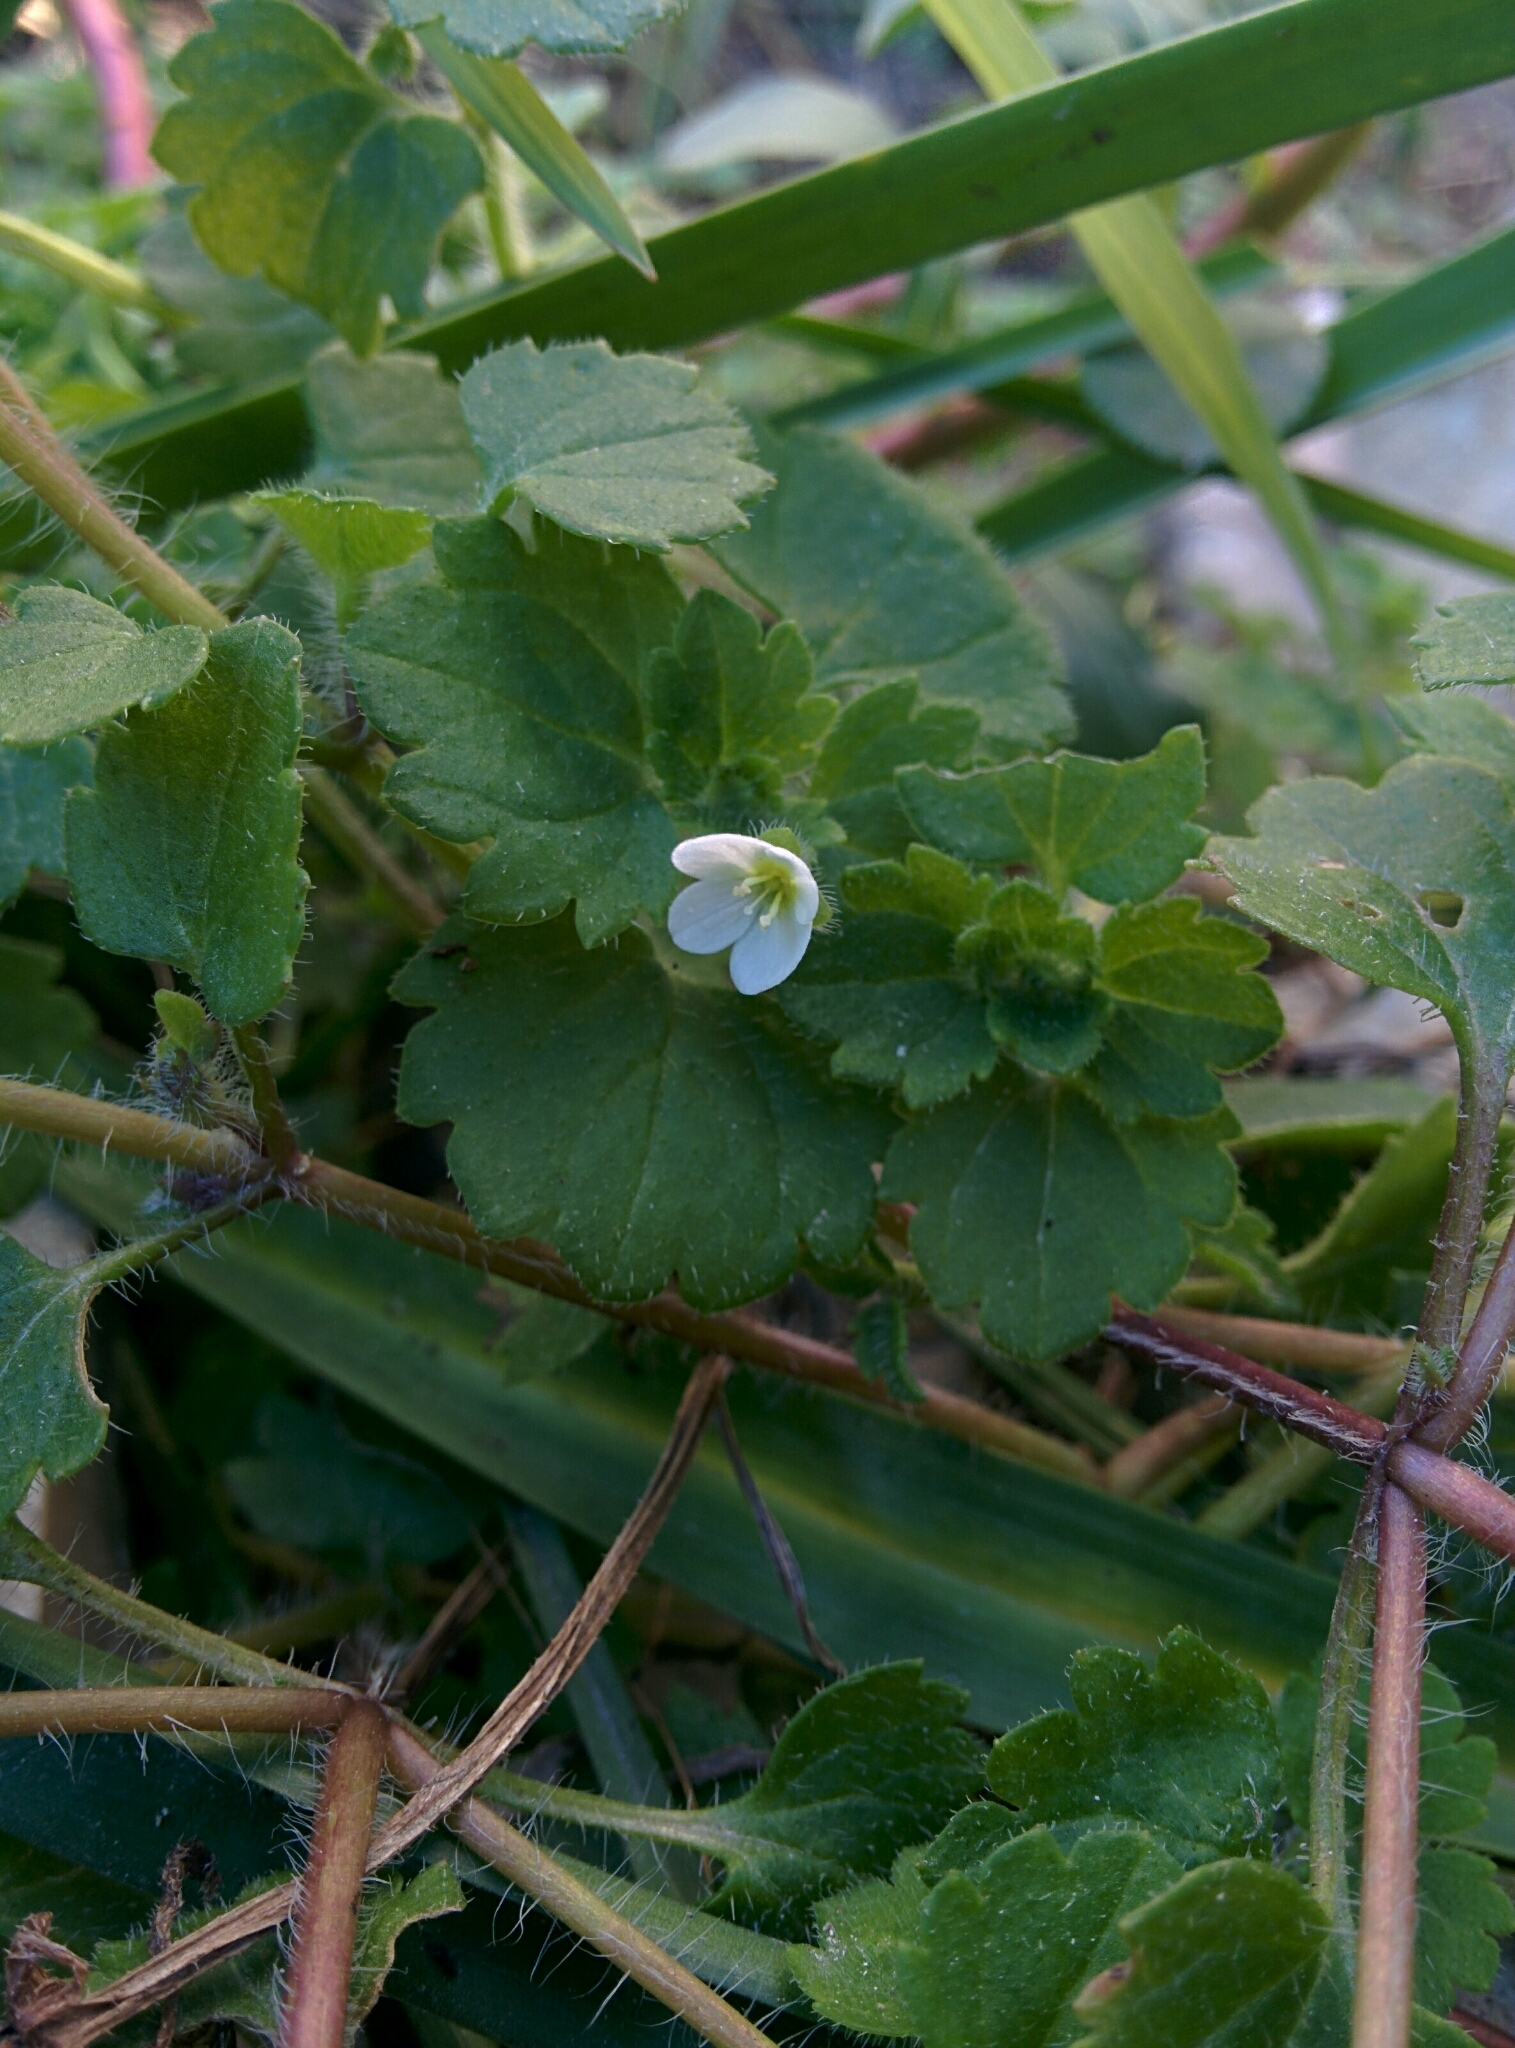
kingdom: Plantae
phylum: Tracheophyta
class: Magnoliopsida
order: Lamiales
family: Plantaginaceae
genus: Veronica
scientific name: Veronica cymbalaria
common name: Pale speedwell
